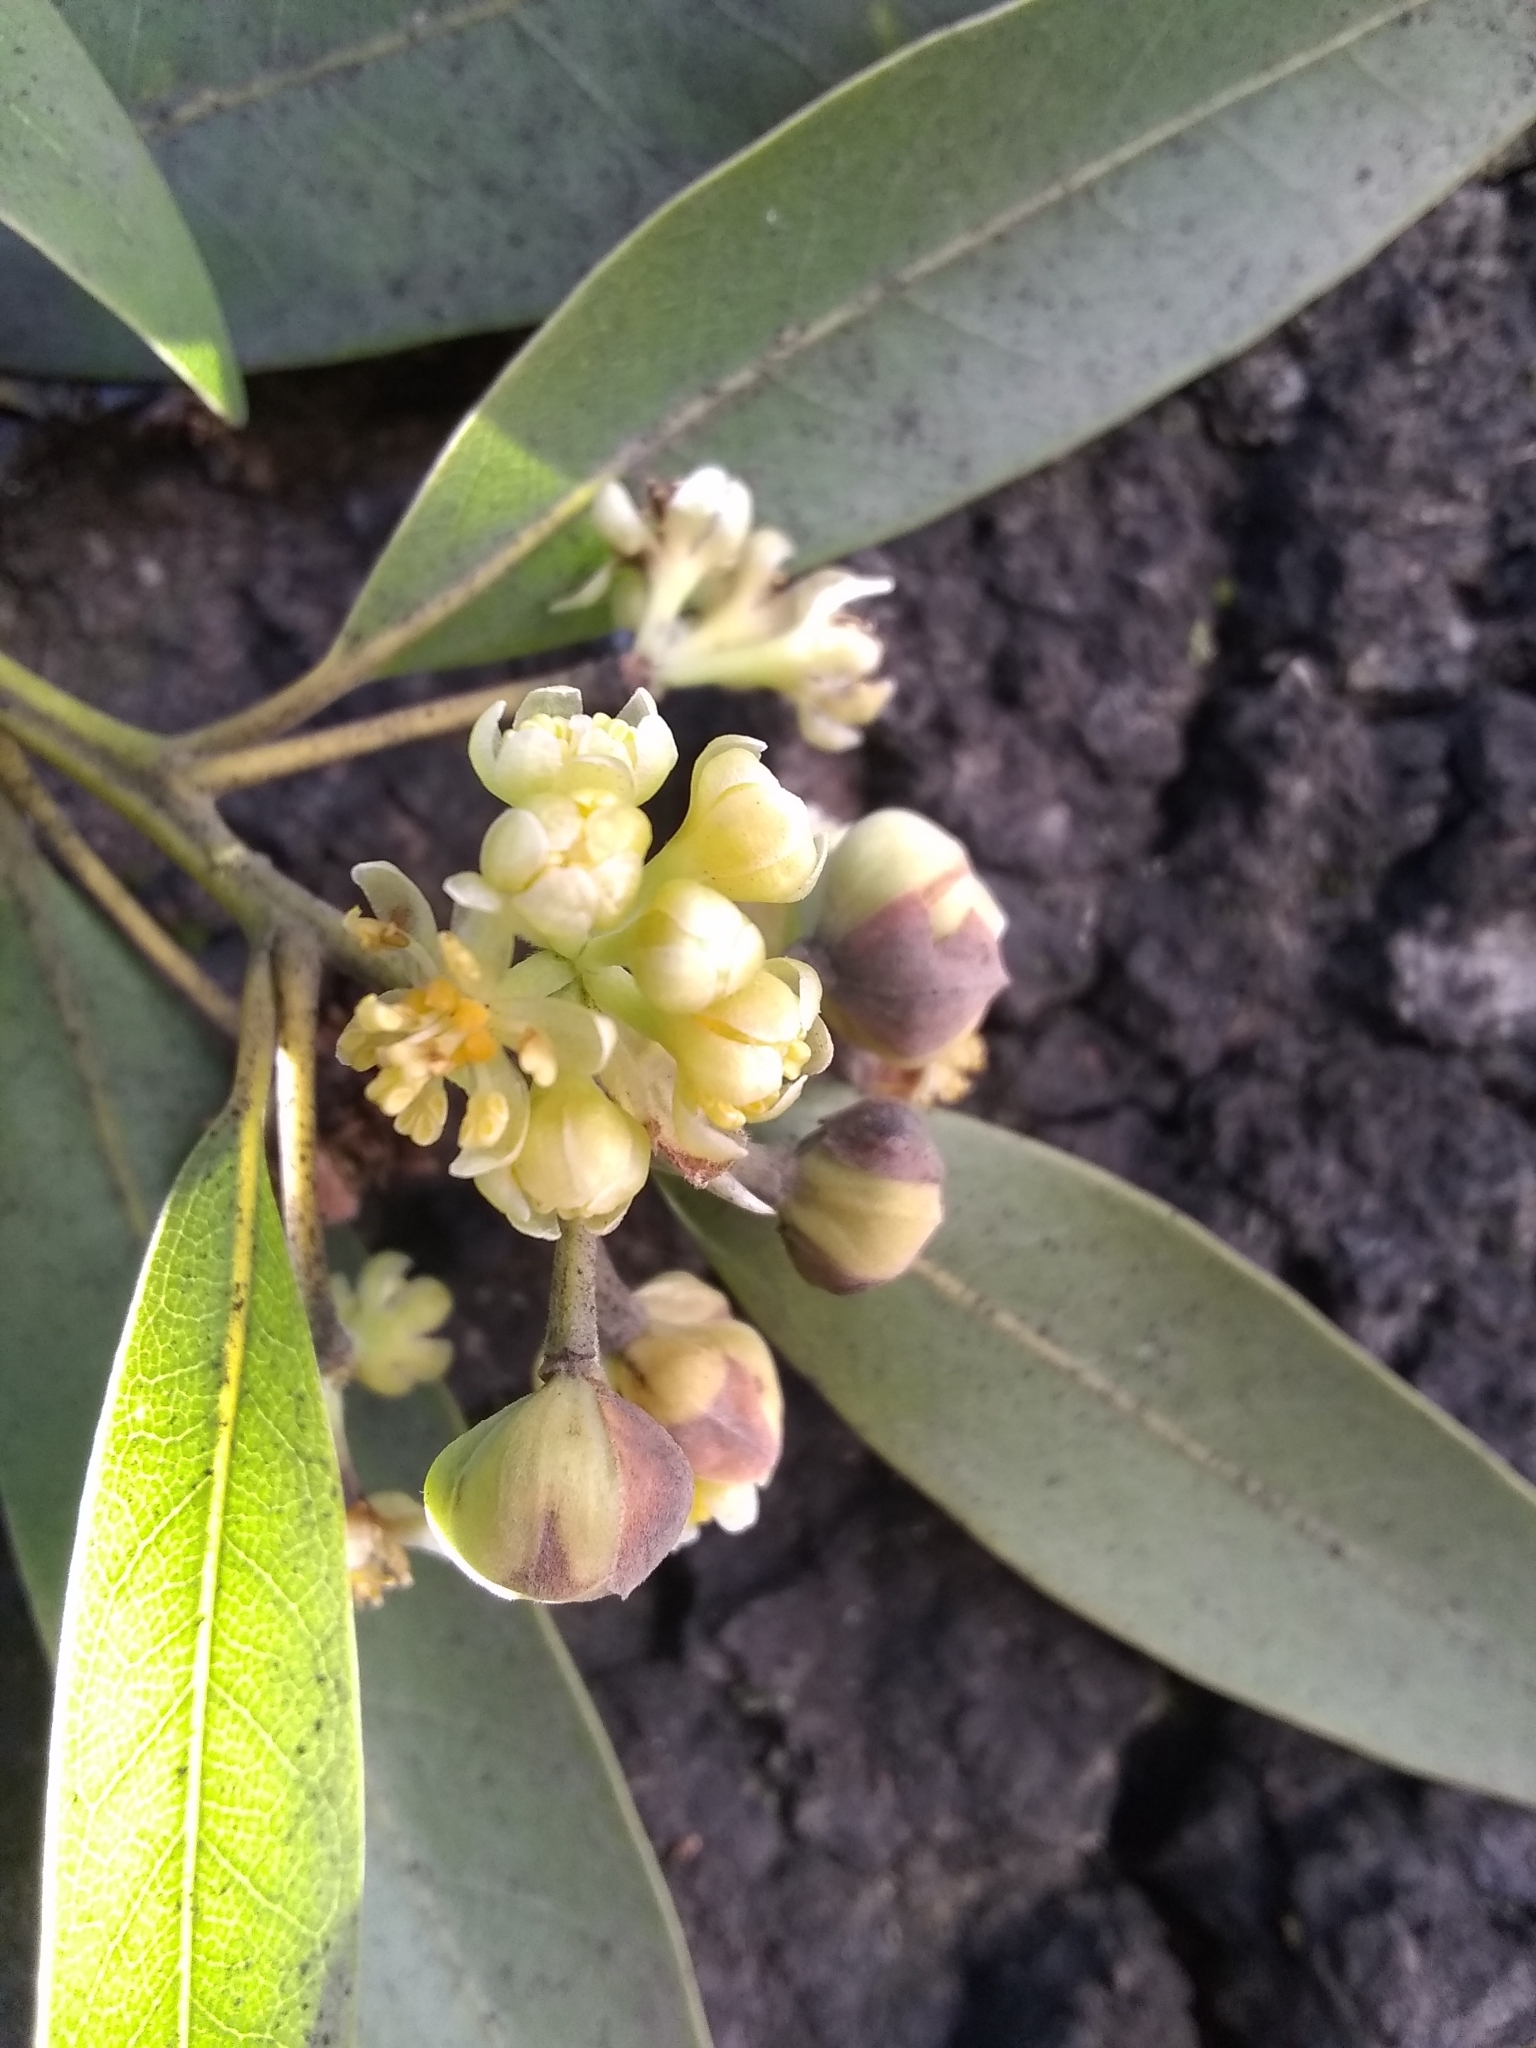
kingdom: Plantae
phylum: Tracheophyta
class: Magnoliopsida
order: Laurales
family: Lauraceae
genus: Umbellularia
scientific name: Umbellularia californica
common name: California bay
